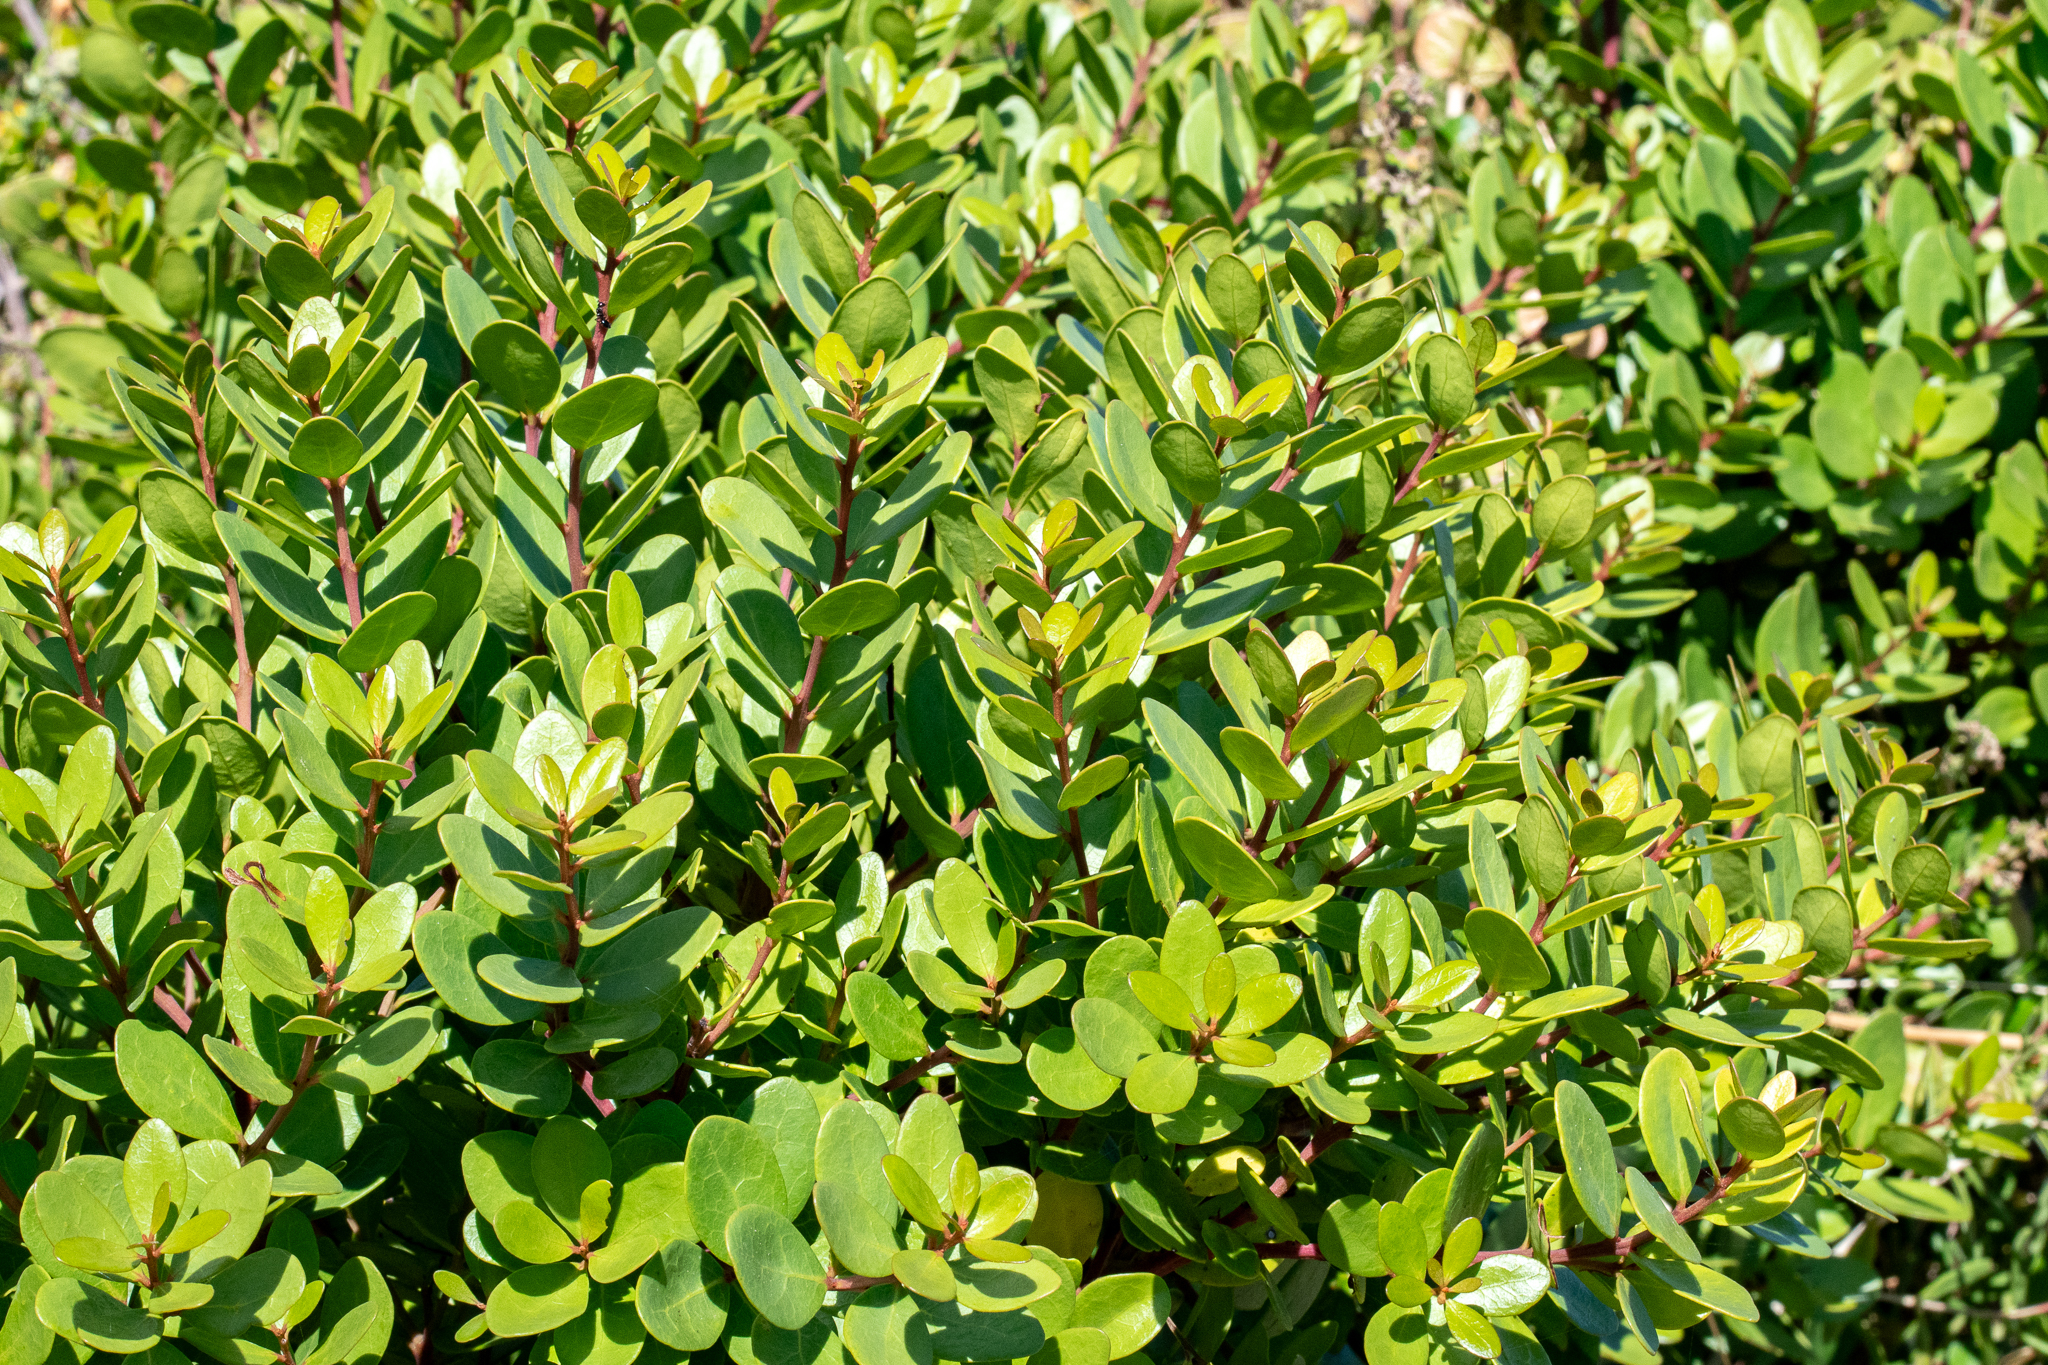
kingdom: Plantae
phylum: Tracheophyta
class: Magnoliopsida
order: Ericales
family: Ebenaceae
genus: Euclea
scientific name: Euclea racemosa
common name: Dune guarri
